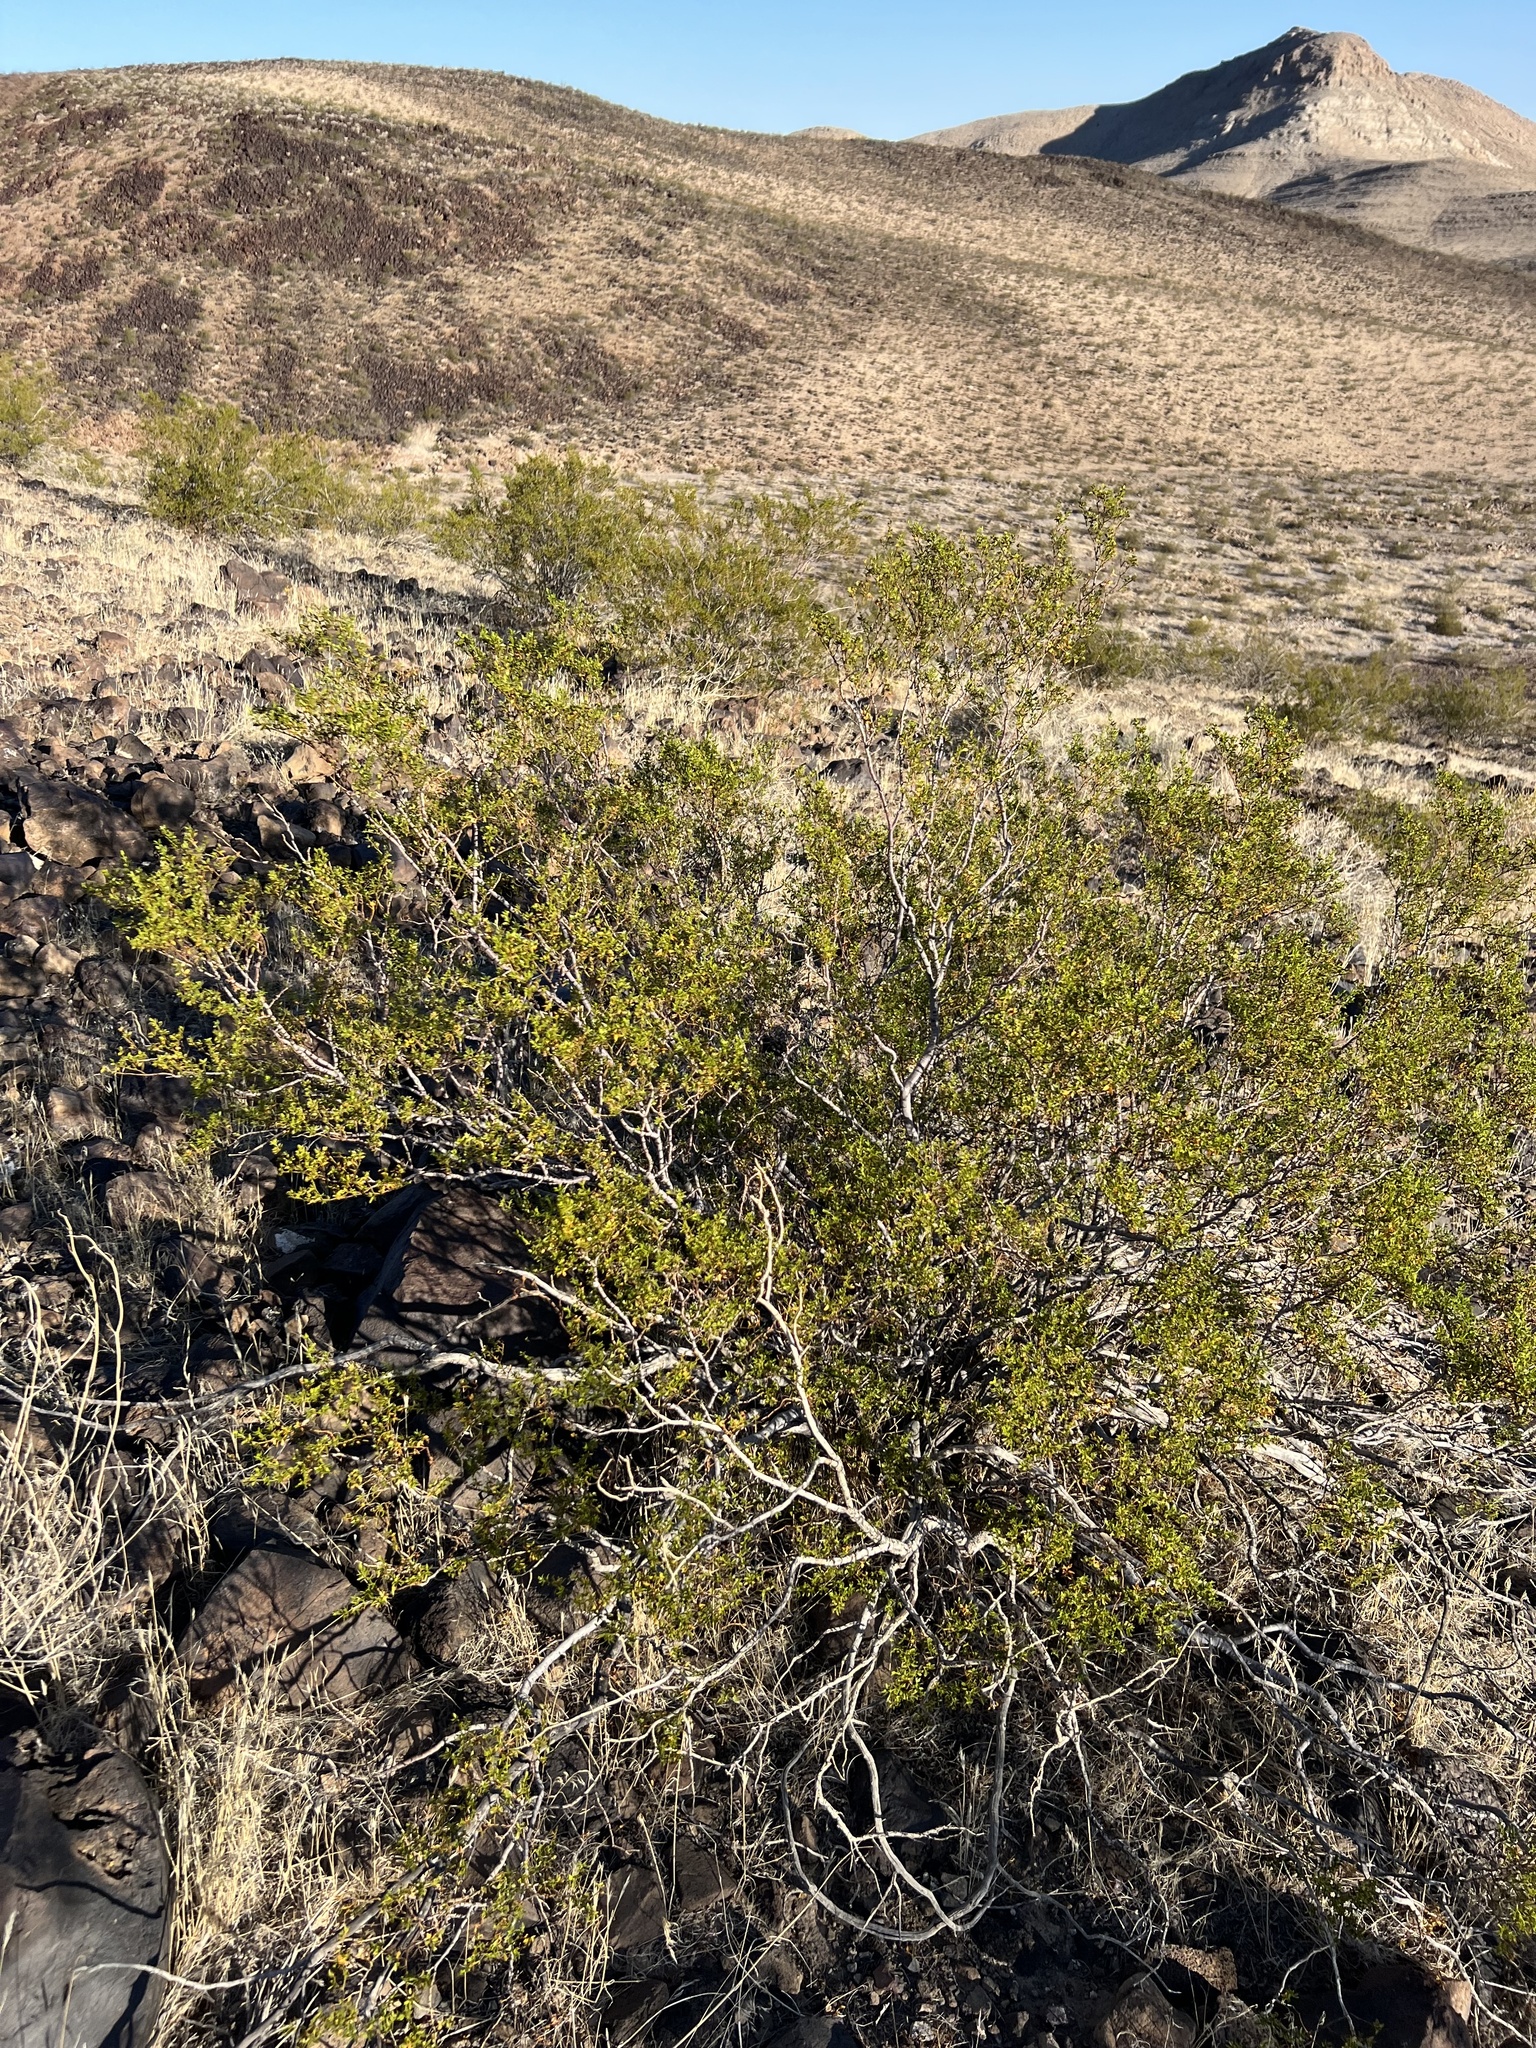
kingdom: Plantae
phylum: Tracheophyta
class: Magnoliopsida
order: Zygophyllales
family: Zygophyllaceae
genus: Larrea
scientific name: Larrea tridentata
